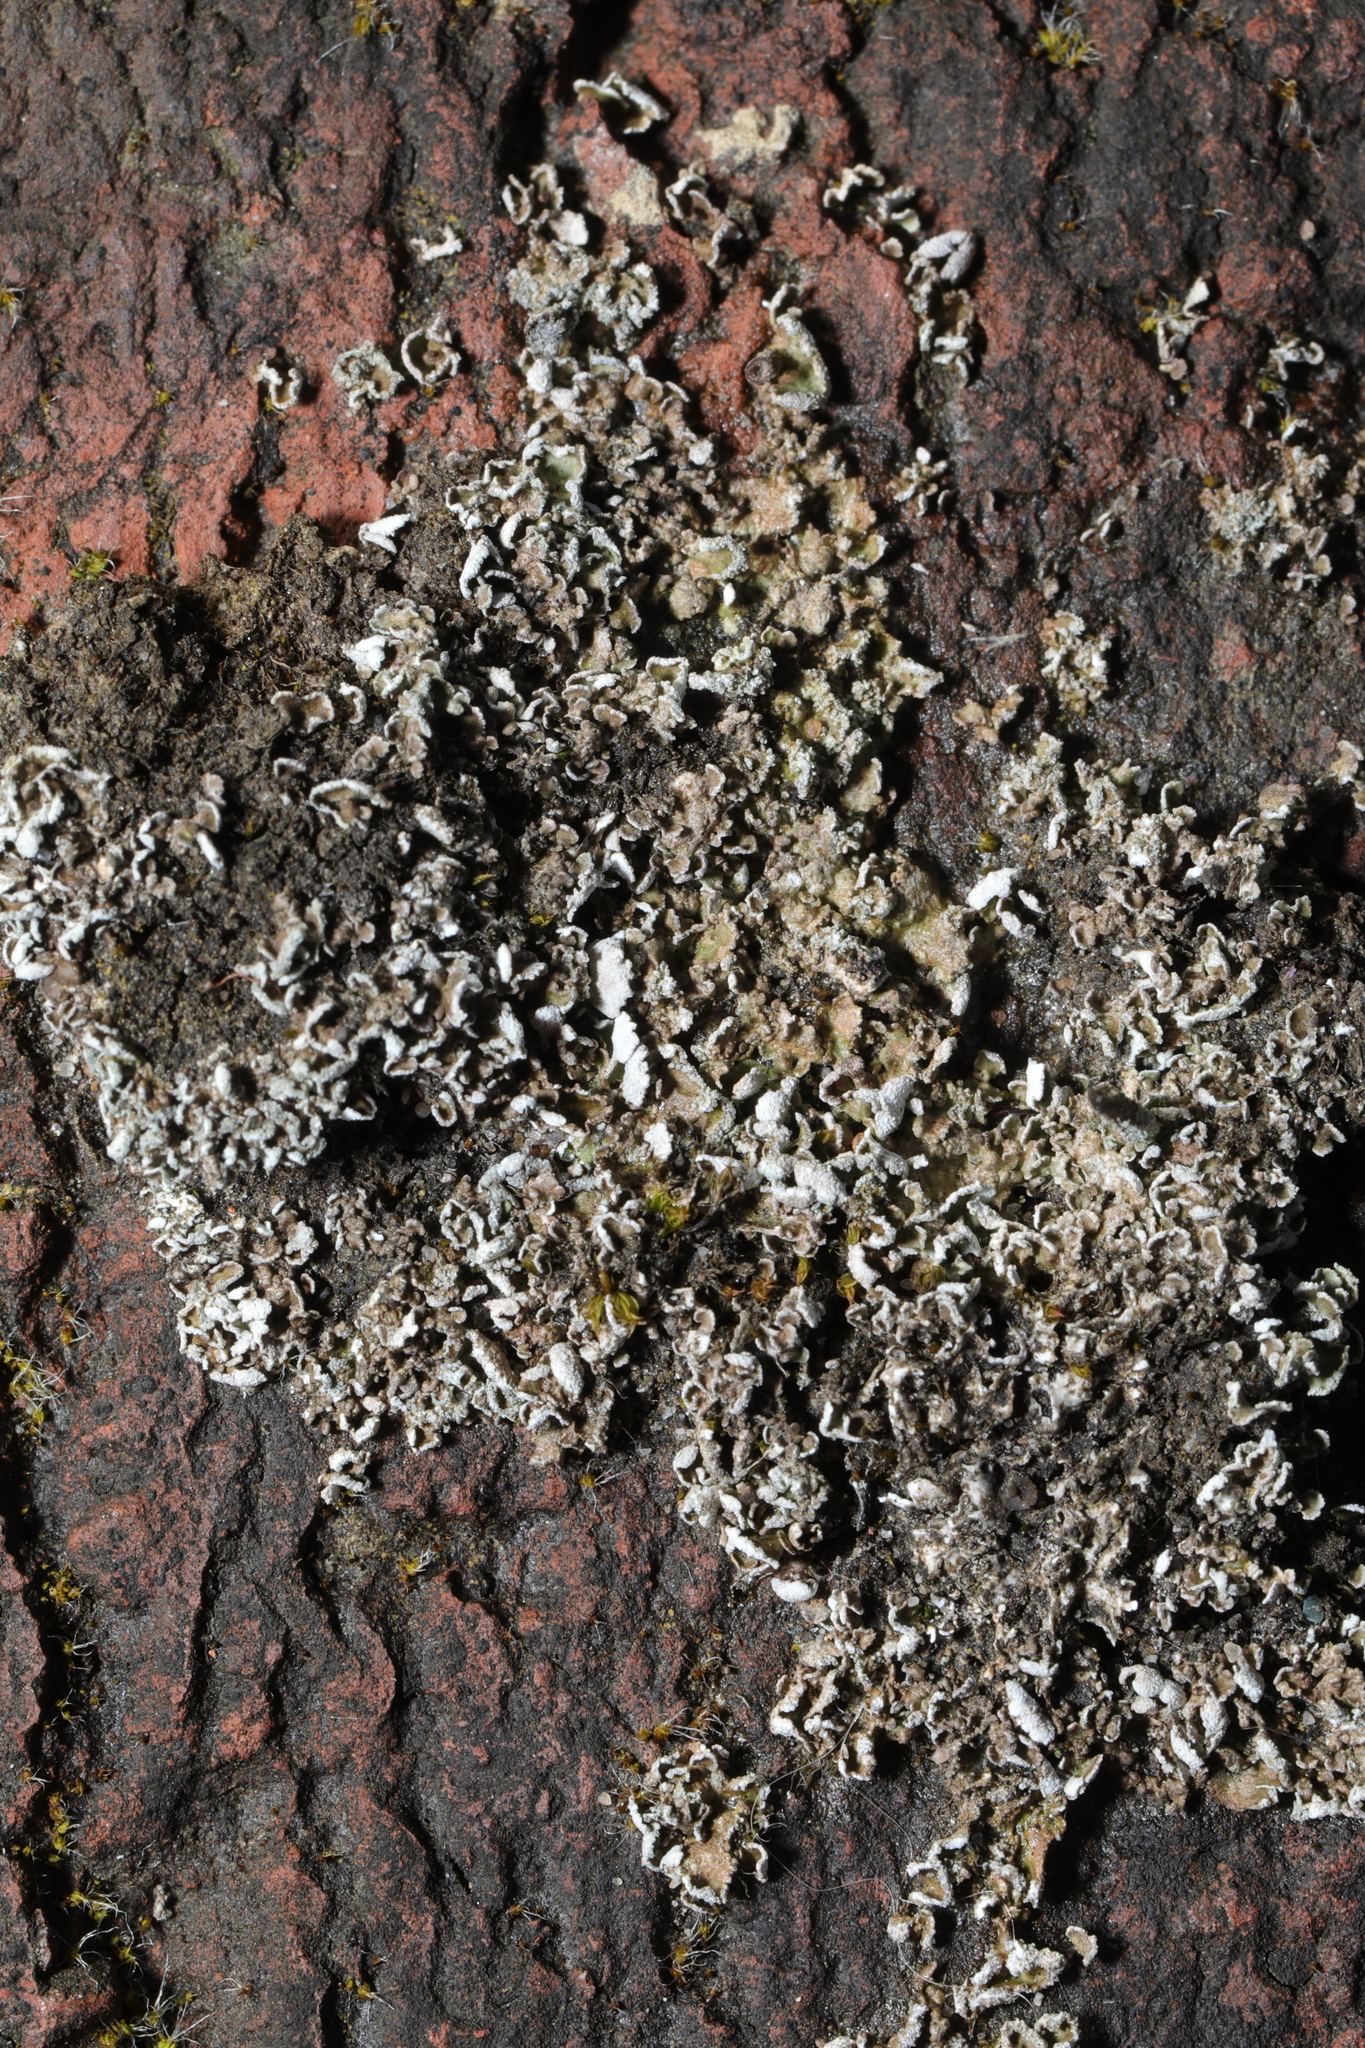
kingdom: Fungi
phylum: Ascomycota
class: Lecanoromycetes
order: Lecanorales
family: Cladoniaceae
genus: Cladonia
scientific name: Cladonia
